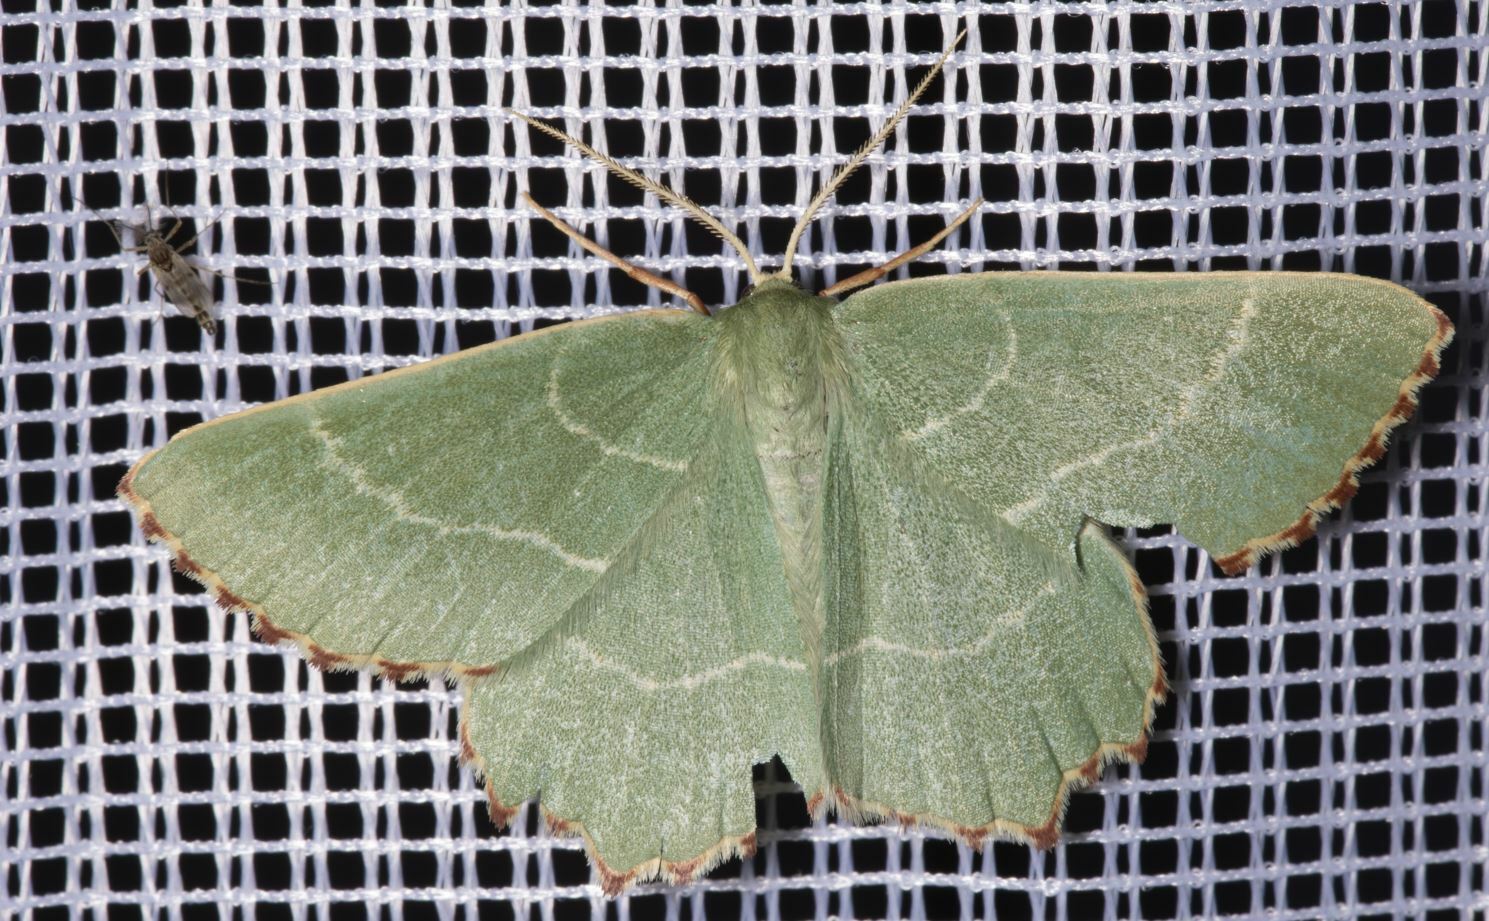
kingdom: Animalia
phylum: Arthropoda
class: Insecta
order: Lepidoptera
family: Geometridae
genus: Thalera
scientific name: Thalera fimbrialis
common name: Sussex emerald
